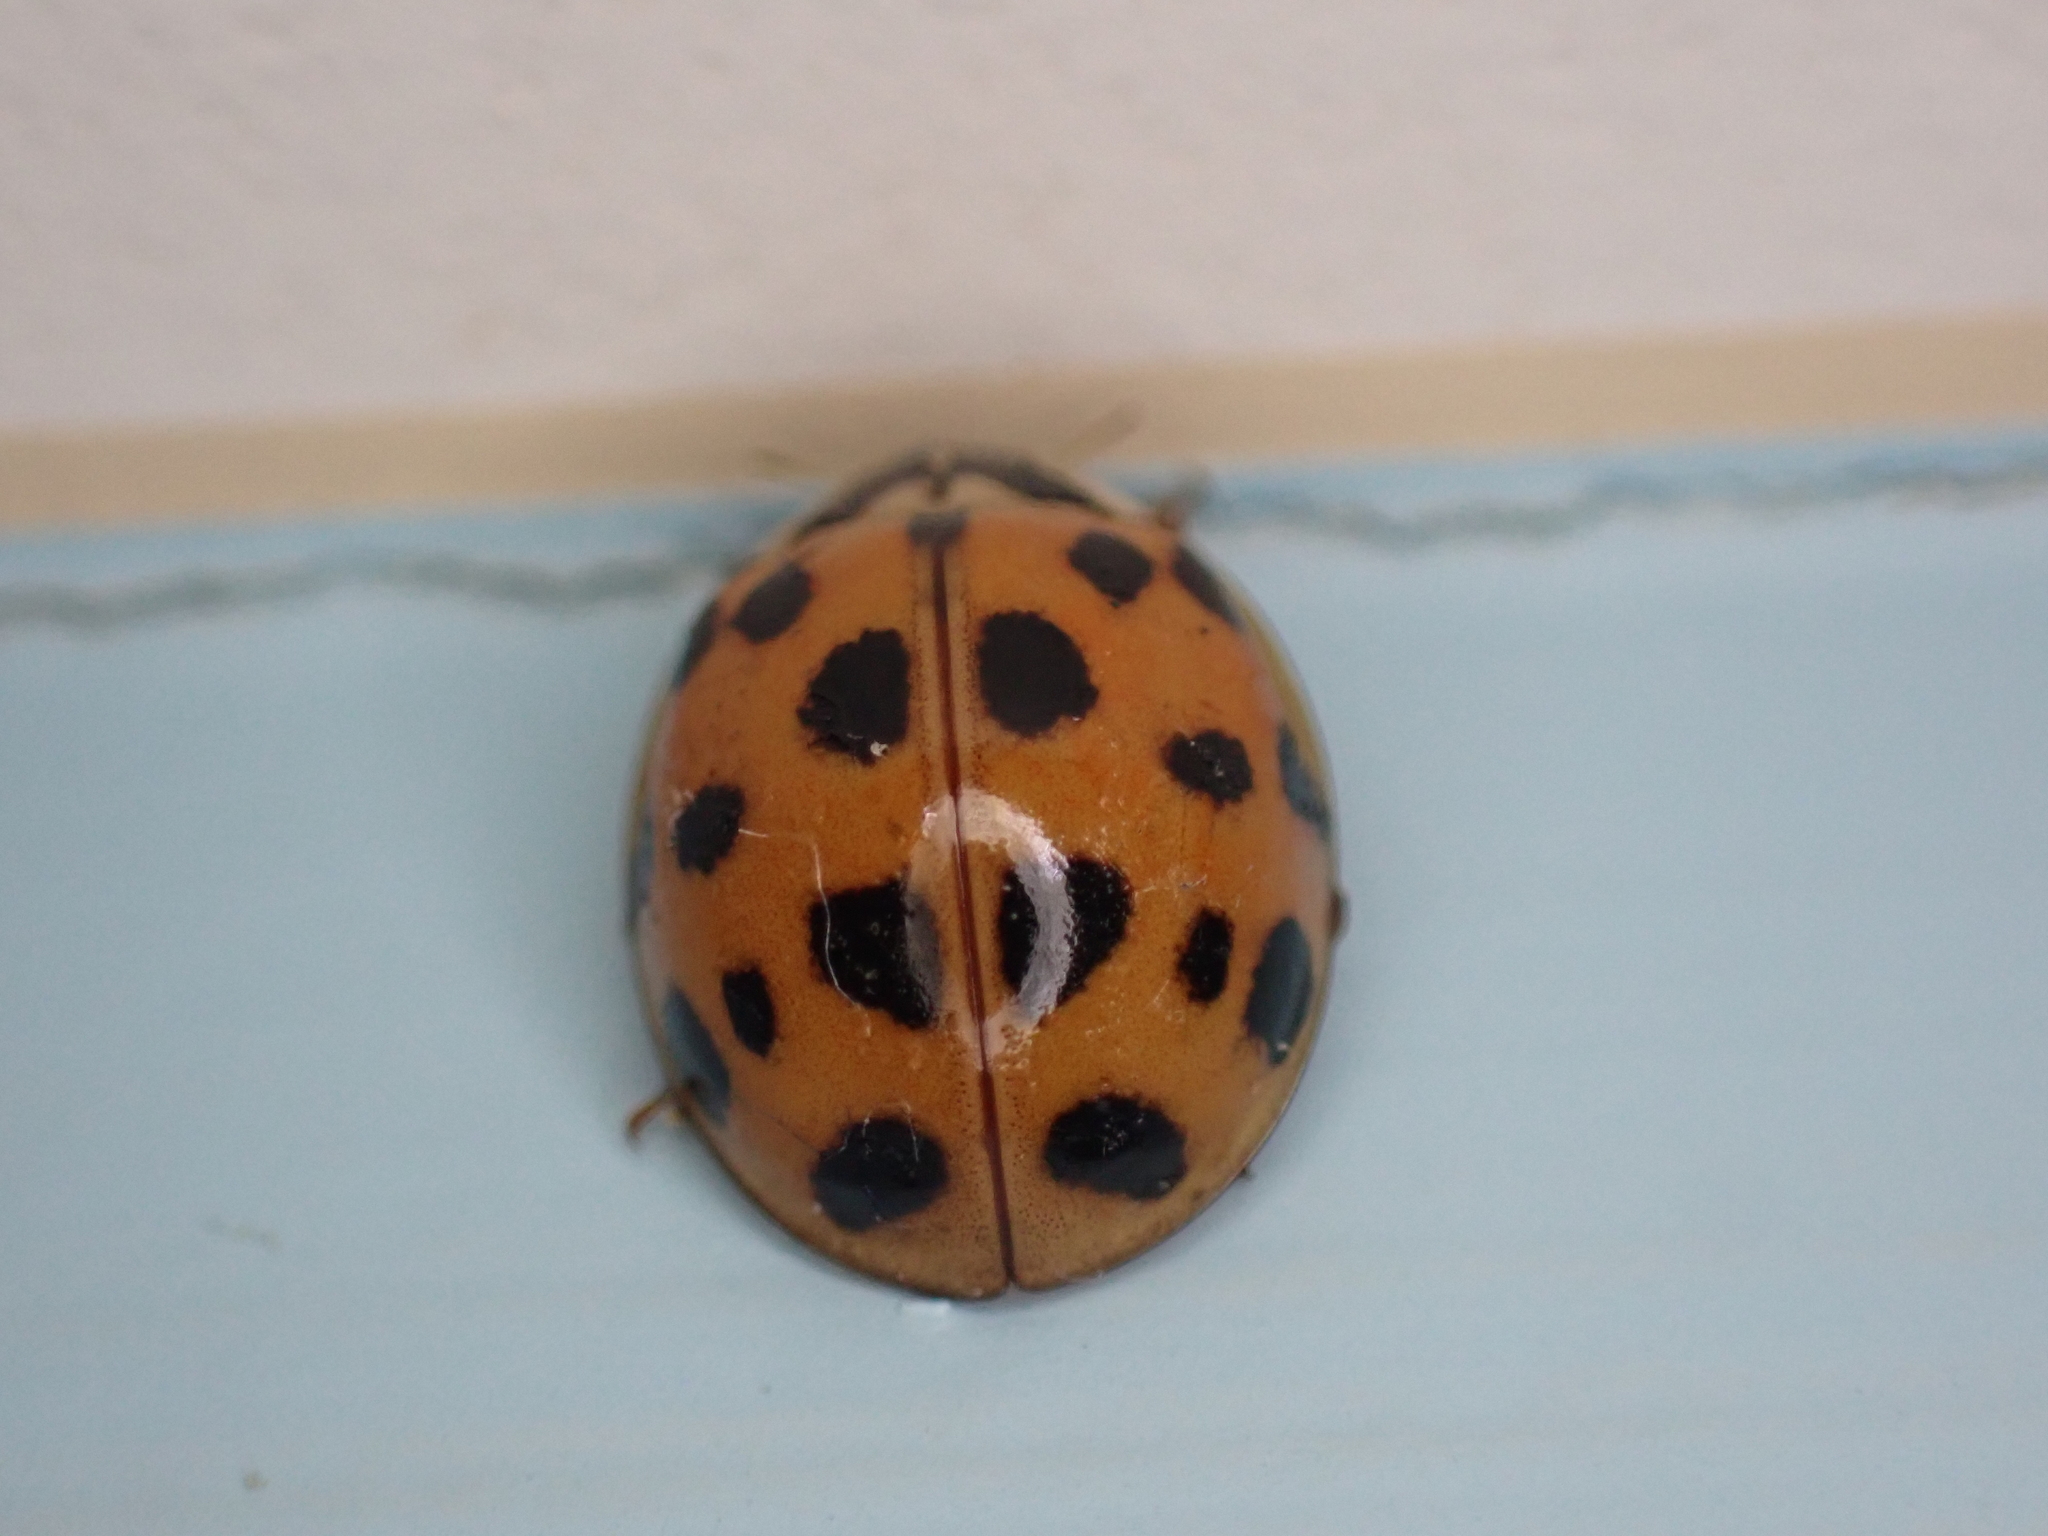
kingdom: Animalia
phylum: Arthropoda
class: Insecta
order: Coleoptera
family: Coccinellidae
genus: Harmonia
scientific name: Harmonia axyridis
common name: Harlequin ladybird
